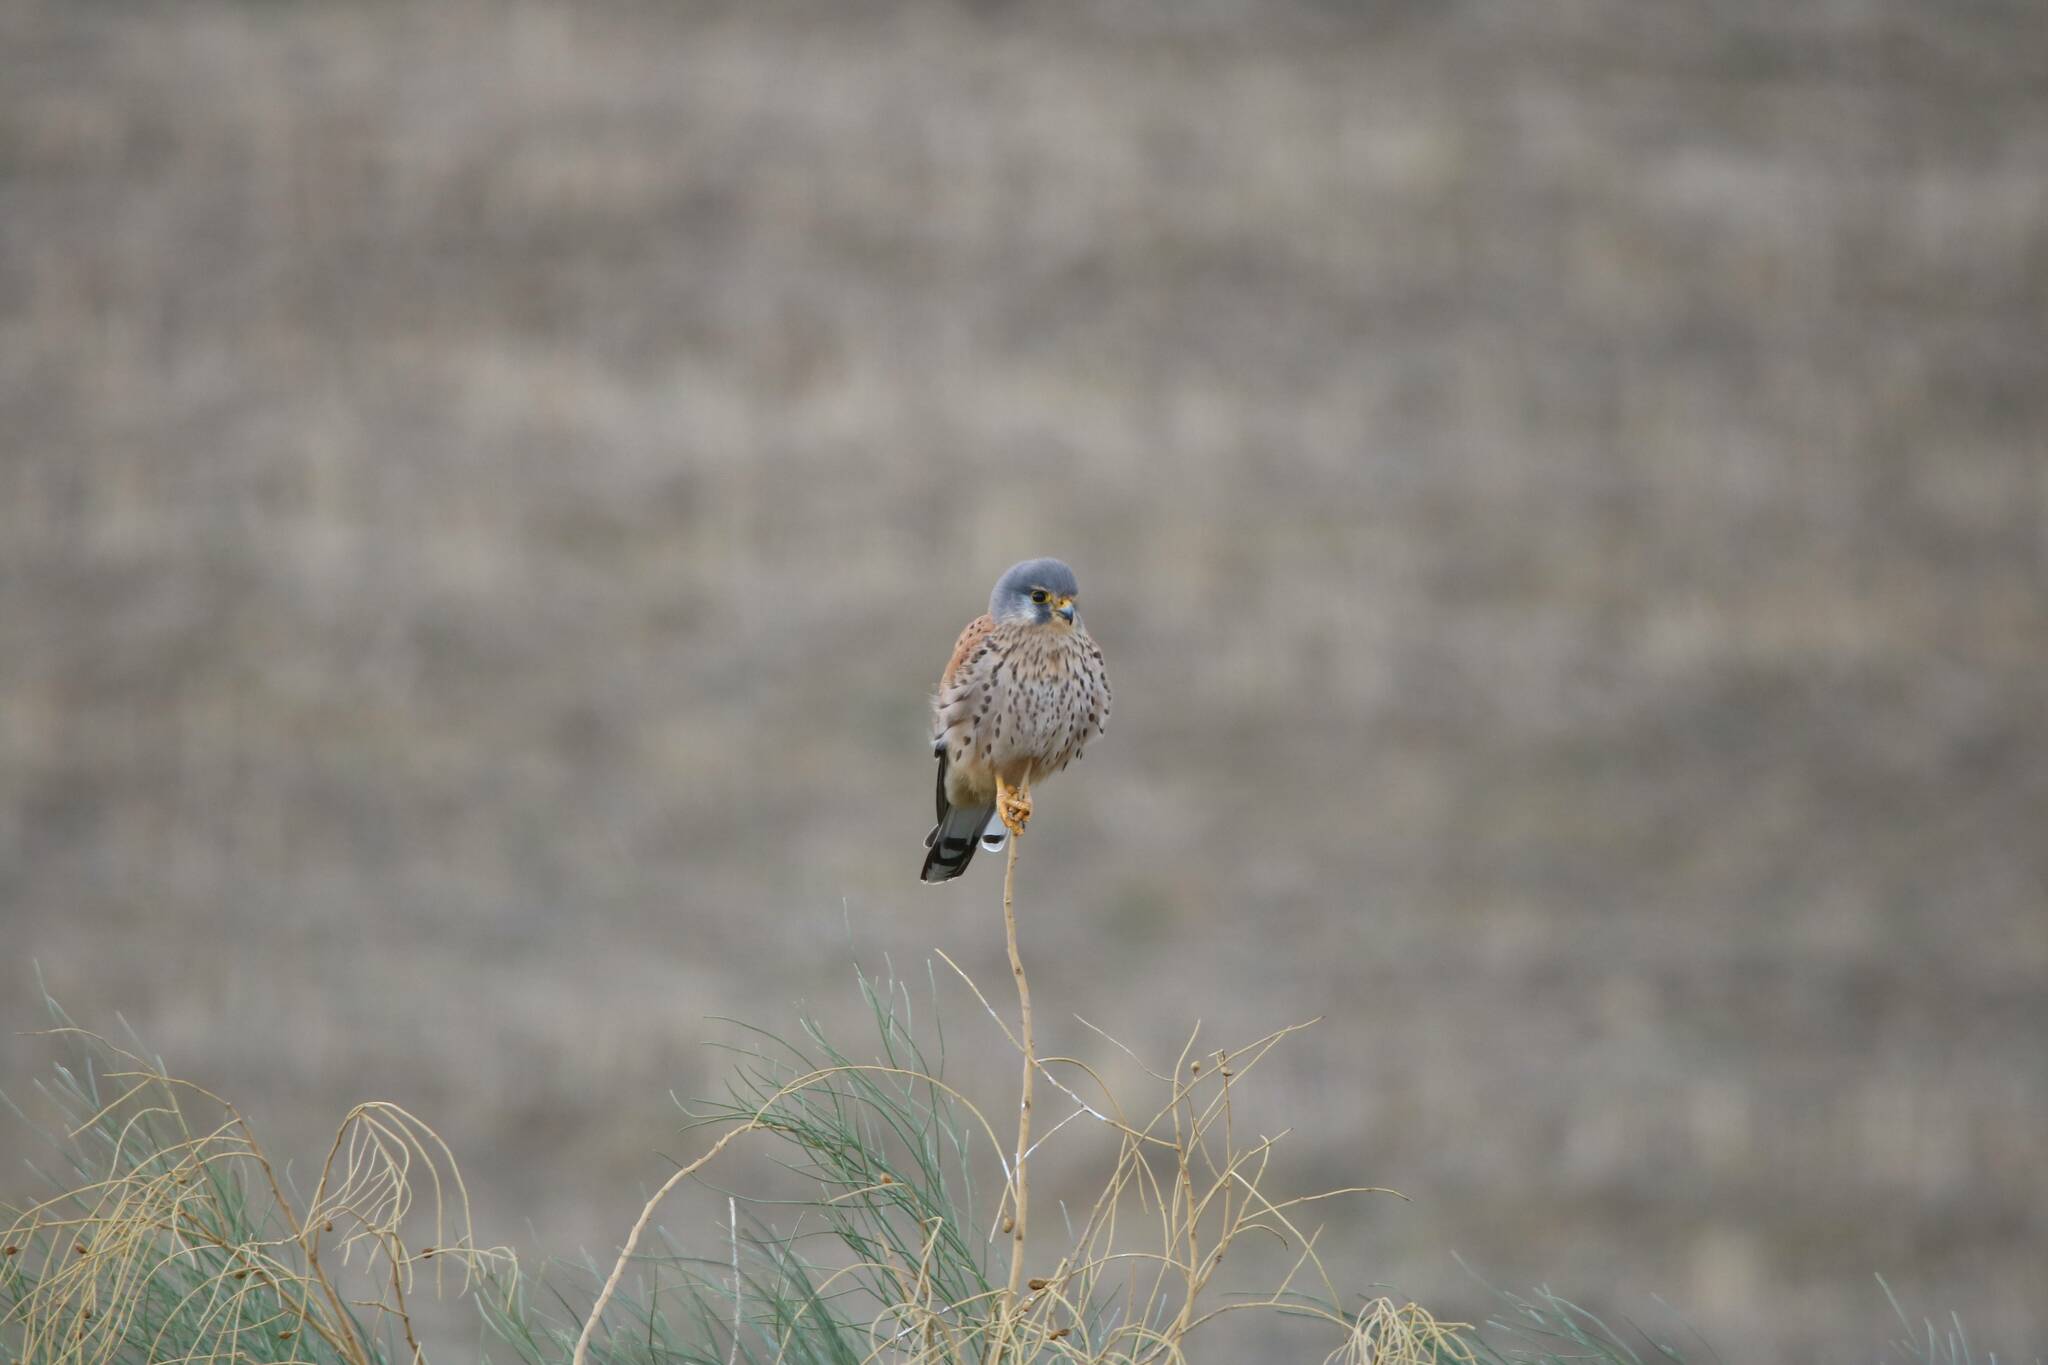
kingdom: Animalia
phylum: Chordata
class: Aves
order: Falconiformes
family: Falconidae
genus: Falco
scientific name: Falco tinnunculus
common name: Common kestrel
